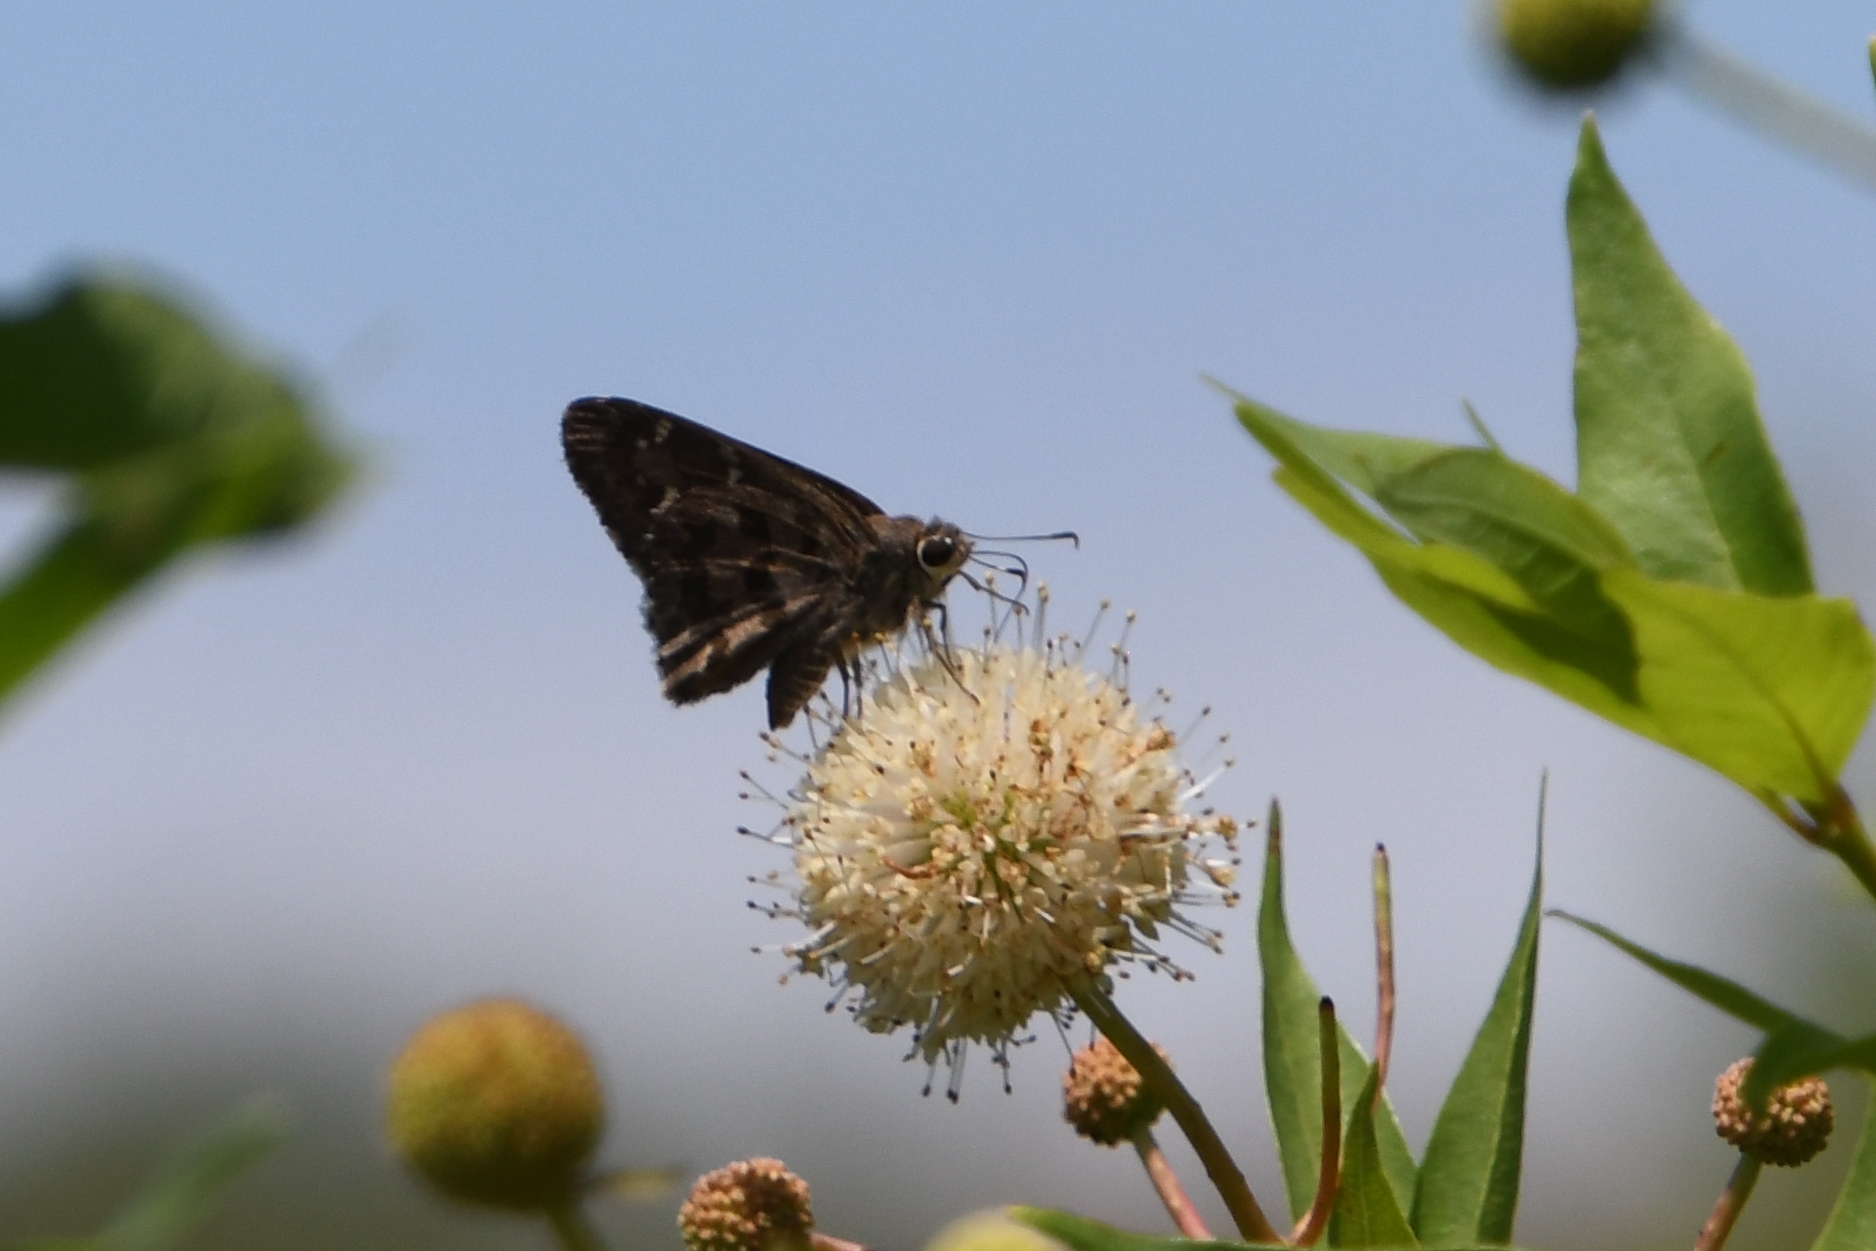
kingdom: Animalia
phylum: Arthropoda
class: Insecta
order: Lepidoptera
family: Hesperiidae
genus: Cogia
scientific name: Cogia hippalus
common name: Acacia skipper
